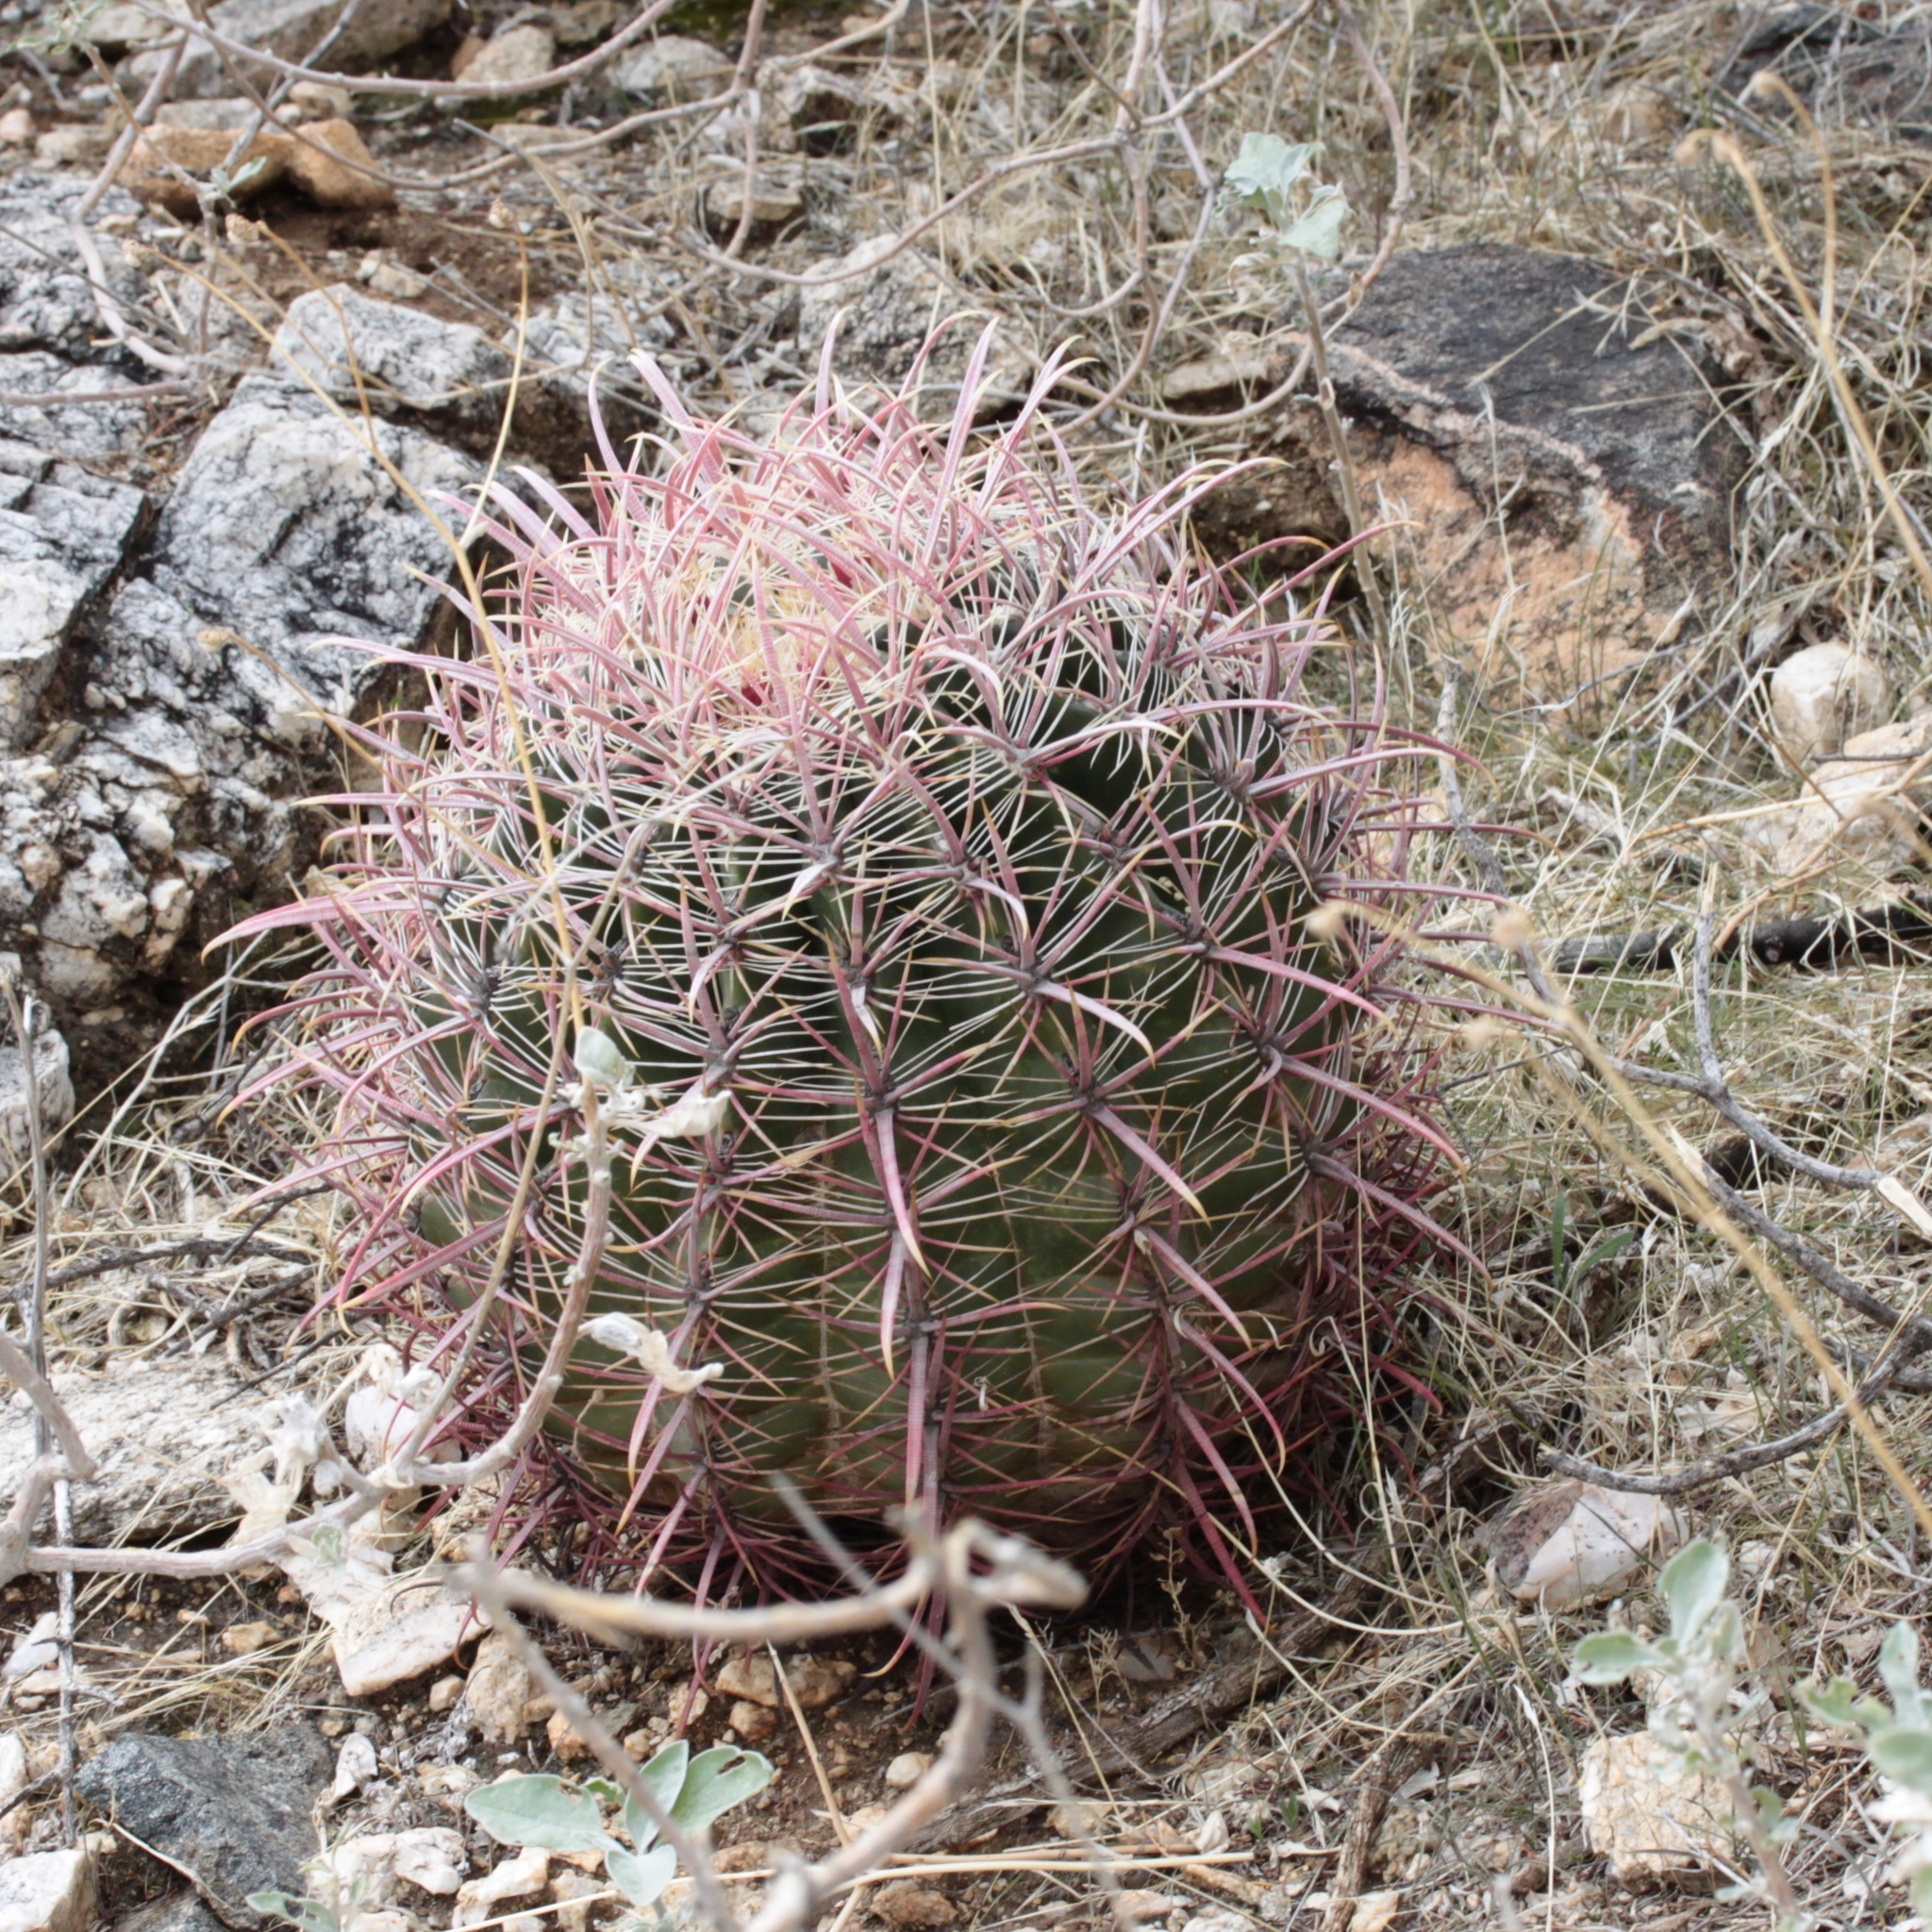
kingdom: Plantae
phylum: Tracheophyta
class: Magnoliopsida
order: Caryophyllales
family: Cactaceae
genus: Ferocactus
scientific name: Ferocactus cylindraceus
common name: California barrel cactus
